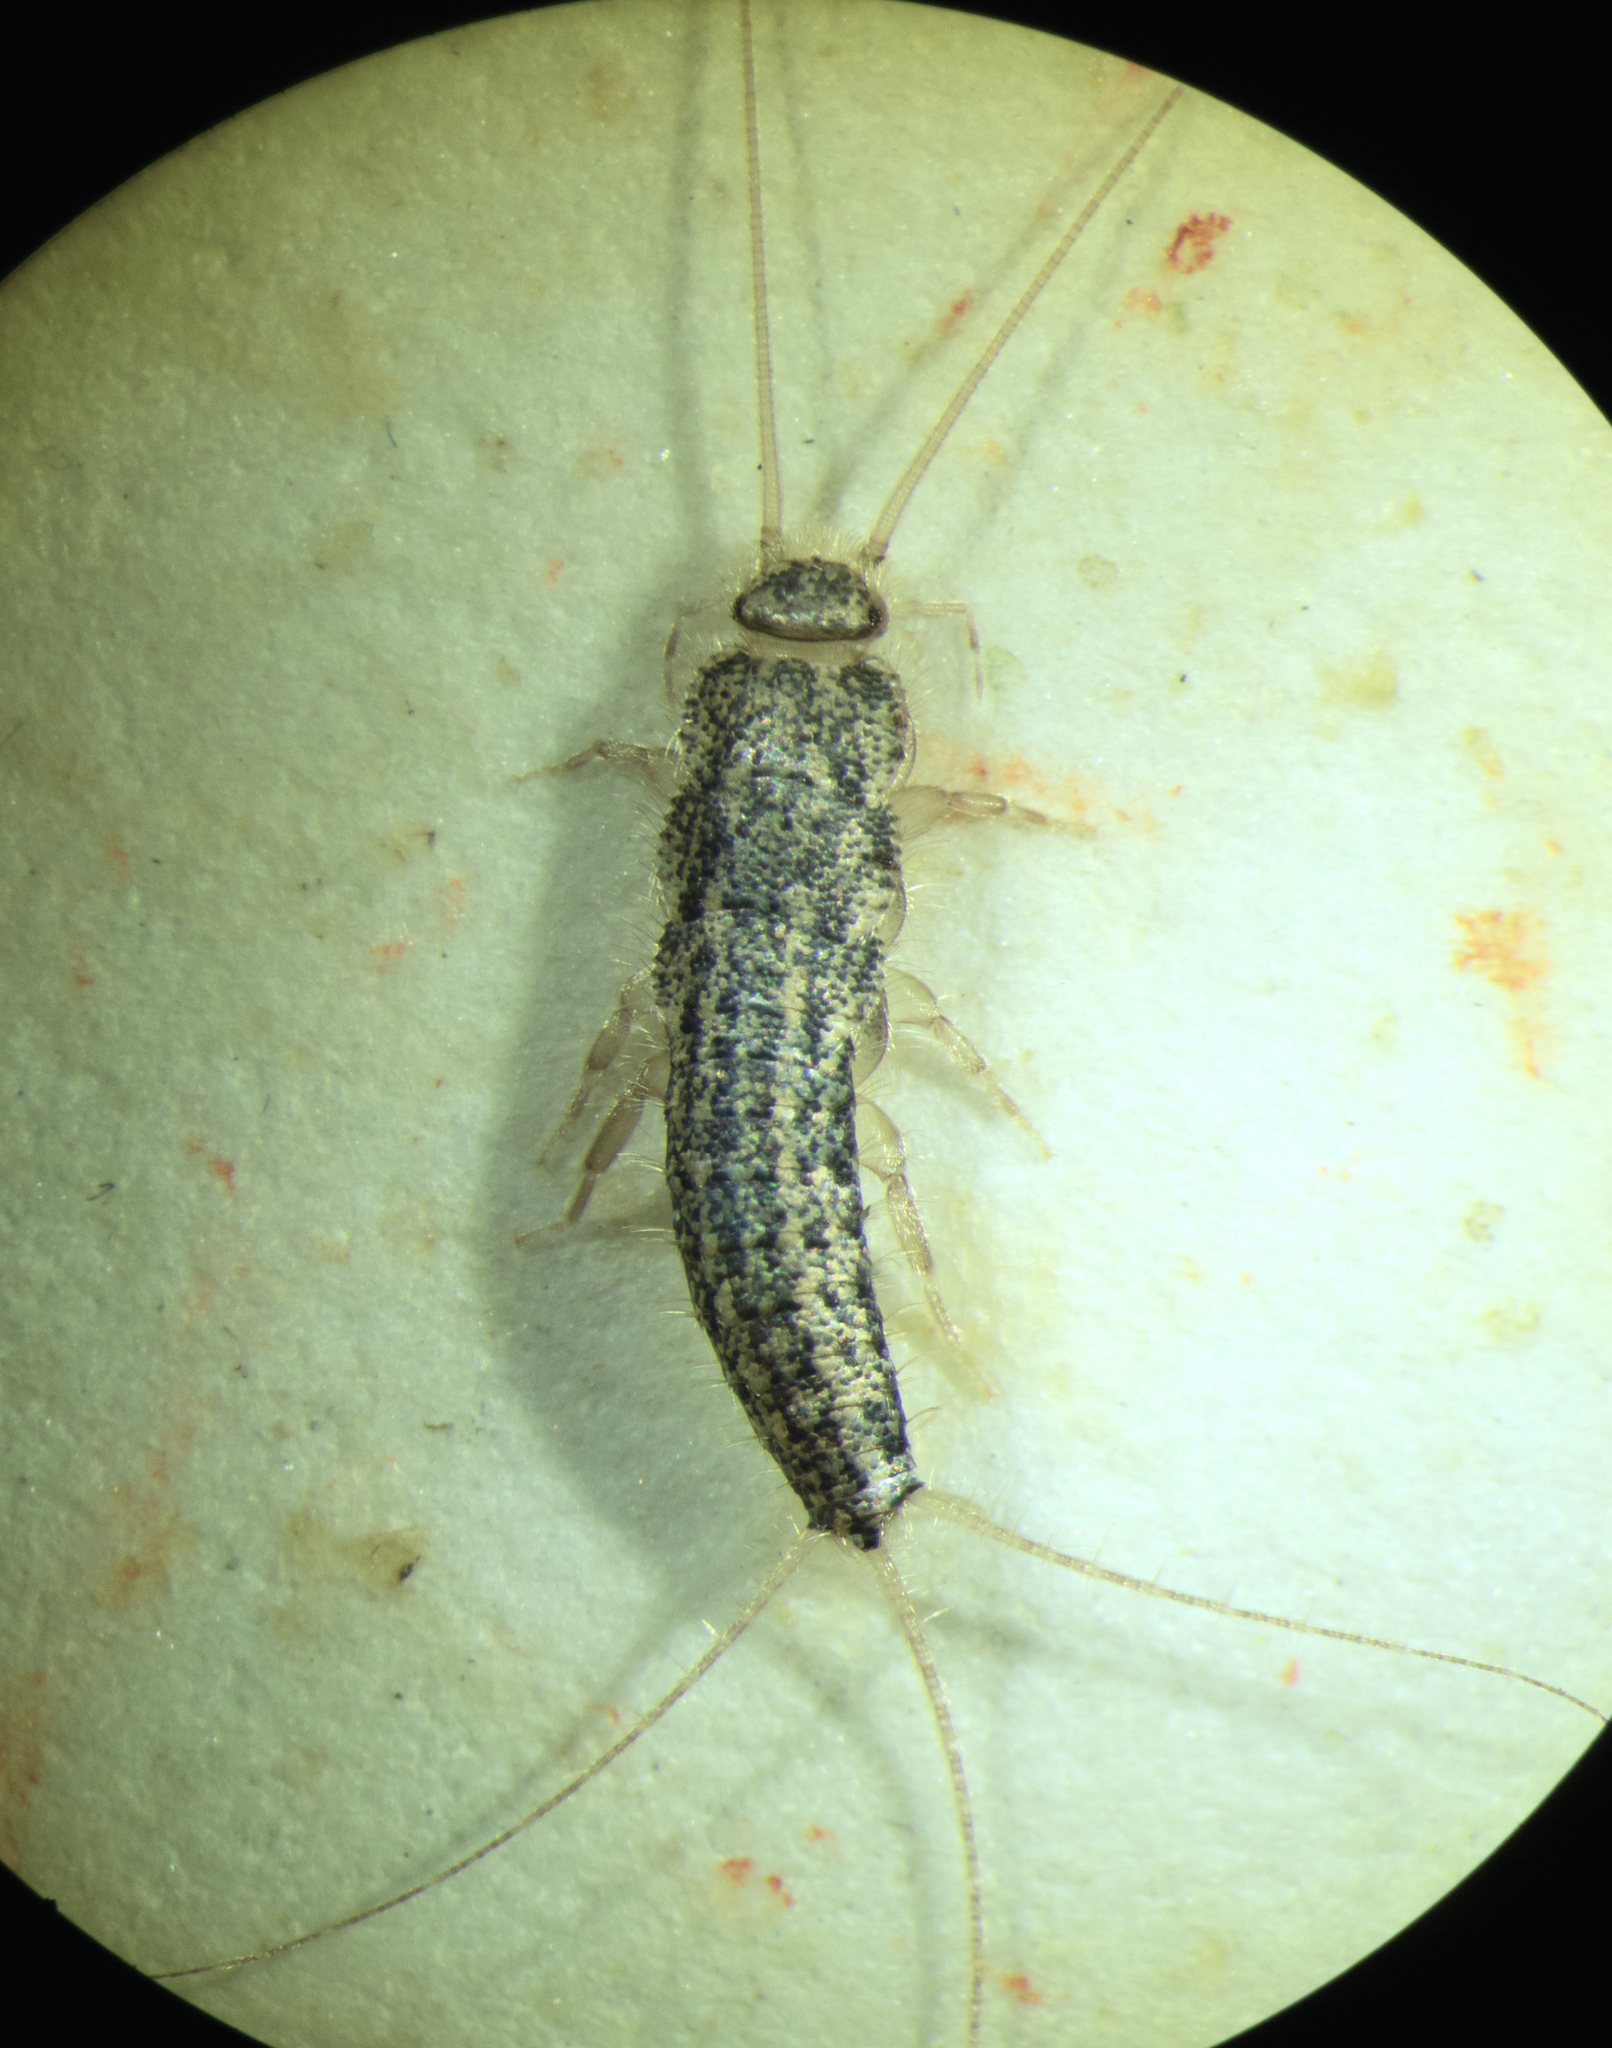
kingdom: Animalia
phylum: Arthropoda
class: Insecta
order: Zygentoma
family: Lepismatidae
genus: Ctenolepisma
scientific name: Ctenolepisma lineata
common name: Four-lined silverfish
